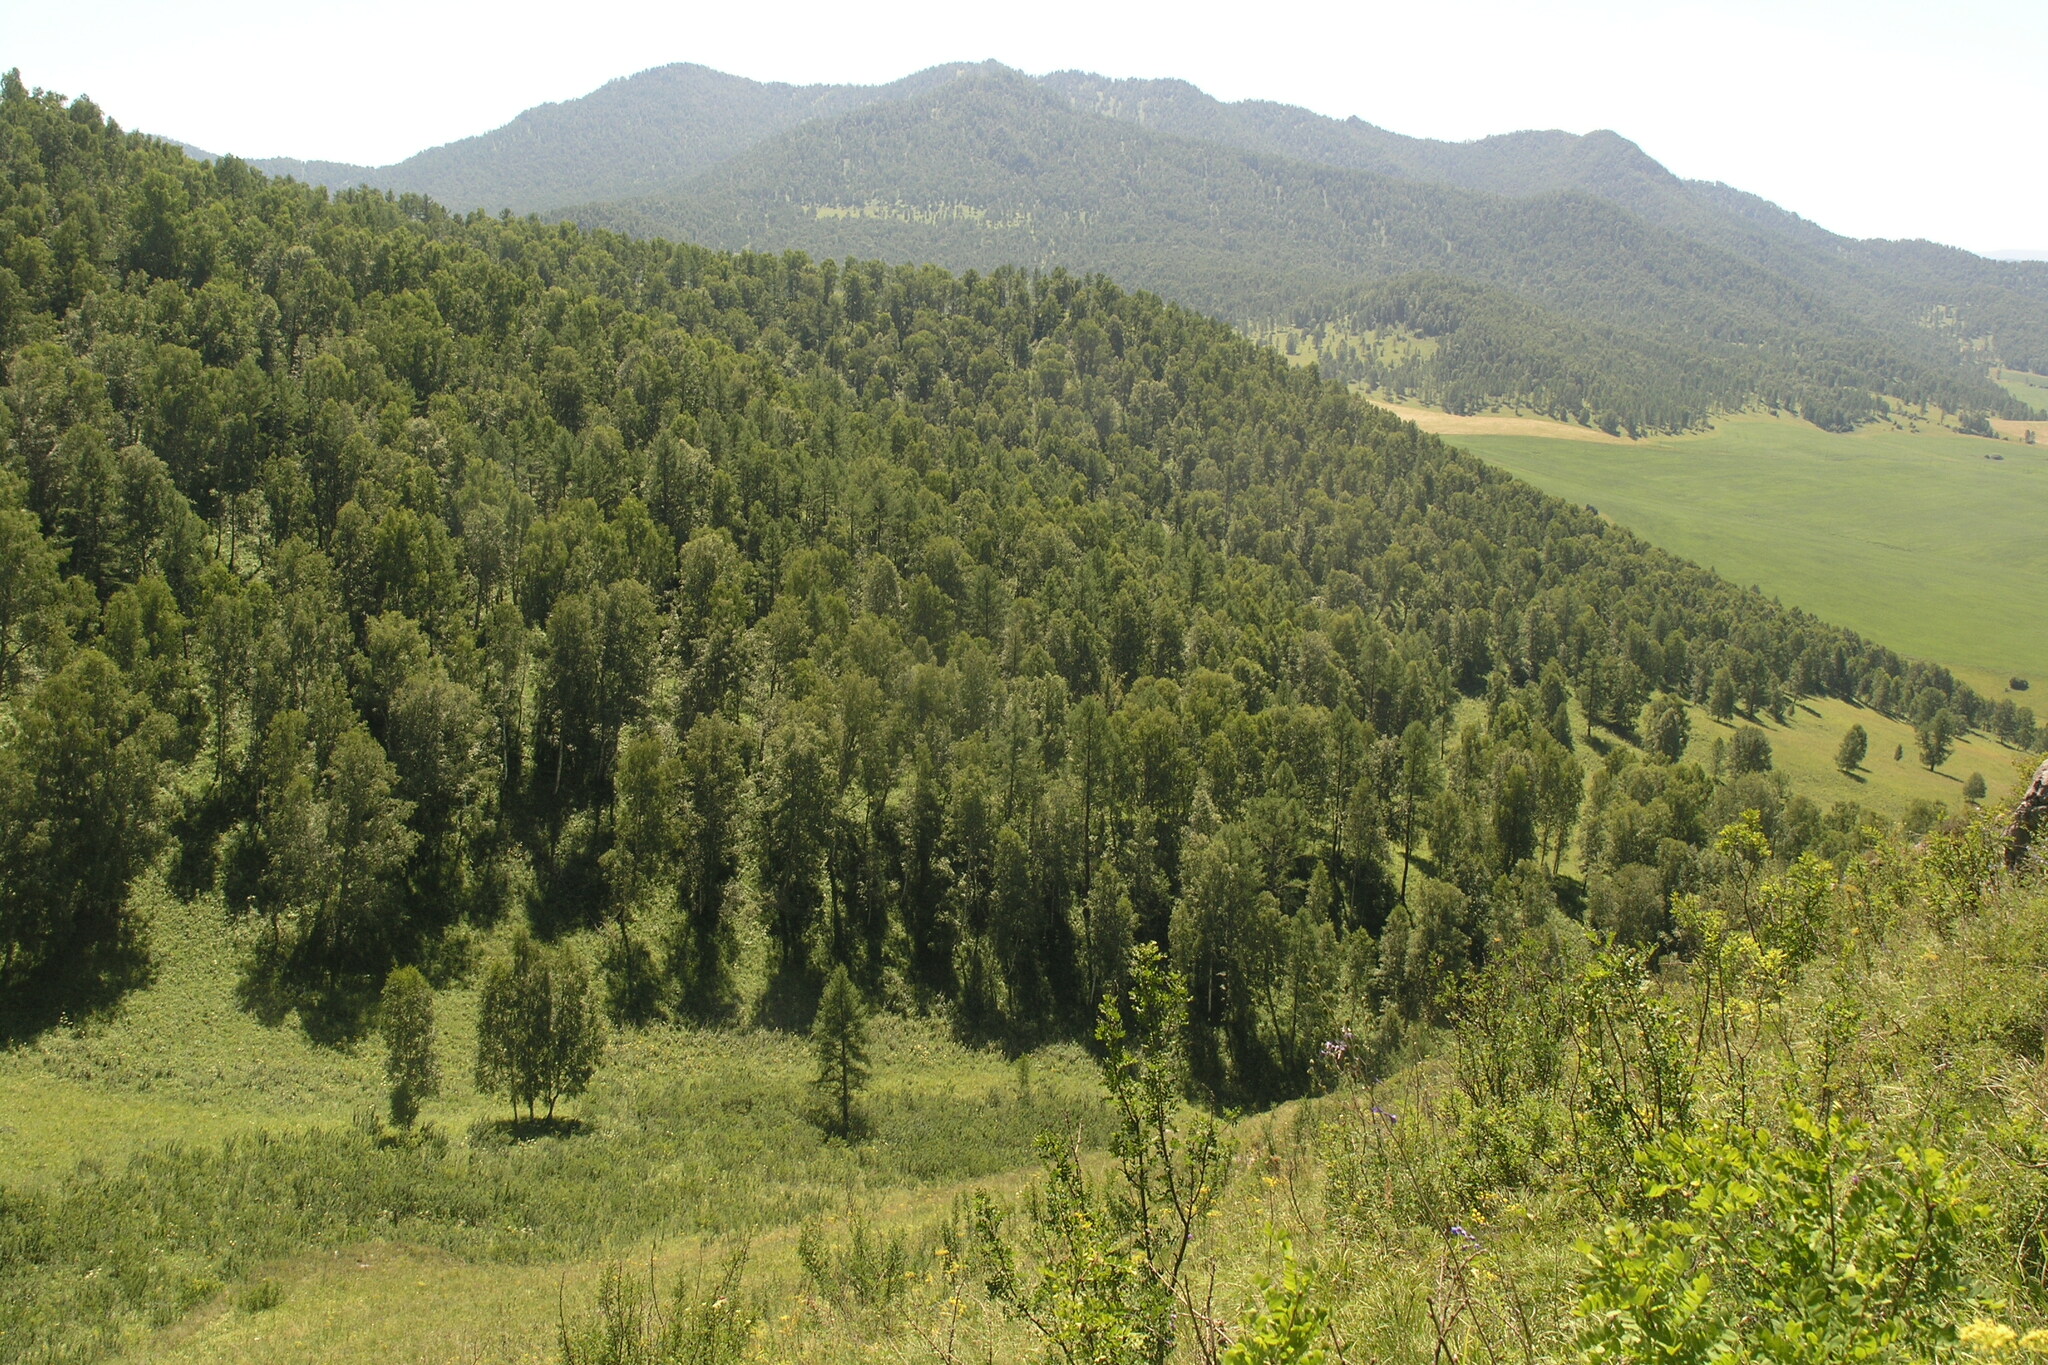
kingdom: Plantae
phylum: Tracheophyta
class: Magnoliopsida
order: Fagales
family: Betulaceae
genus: Betula
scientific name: Betula pendula
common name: Silver birch
